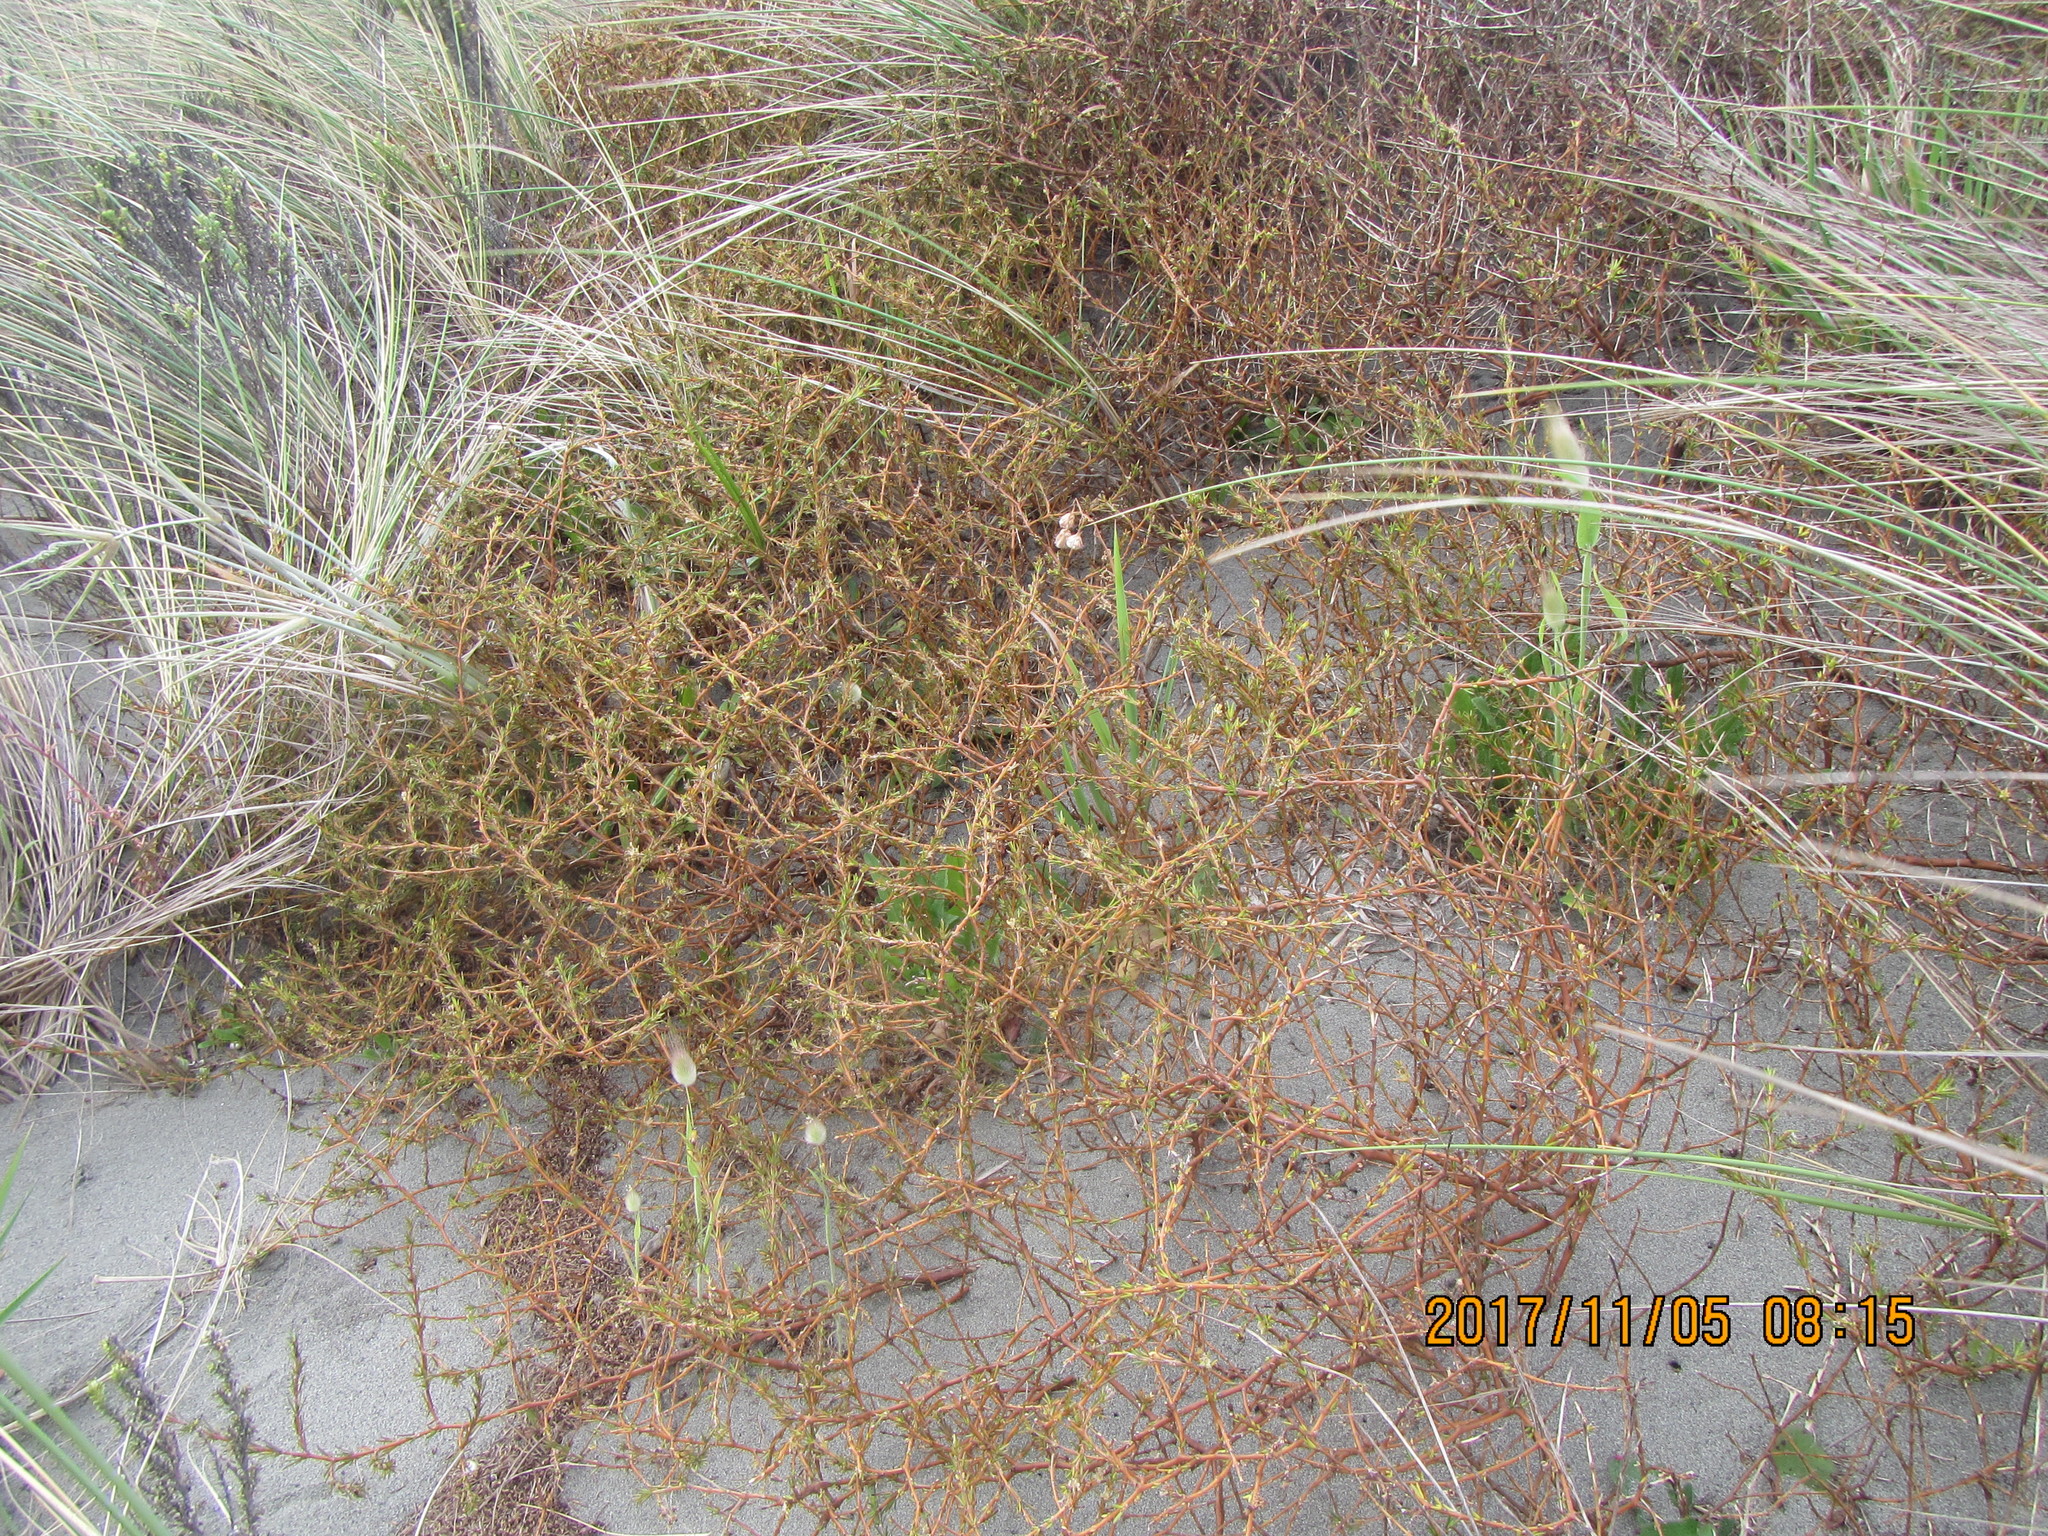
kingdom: Plantae
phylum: Tracheophyta
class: Magnoliopsida
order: Gentianales
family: Rubiaceae
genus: Coprosma
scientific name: Coprosma acerosa
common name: Sand coprosma
